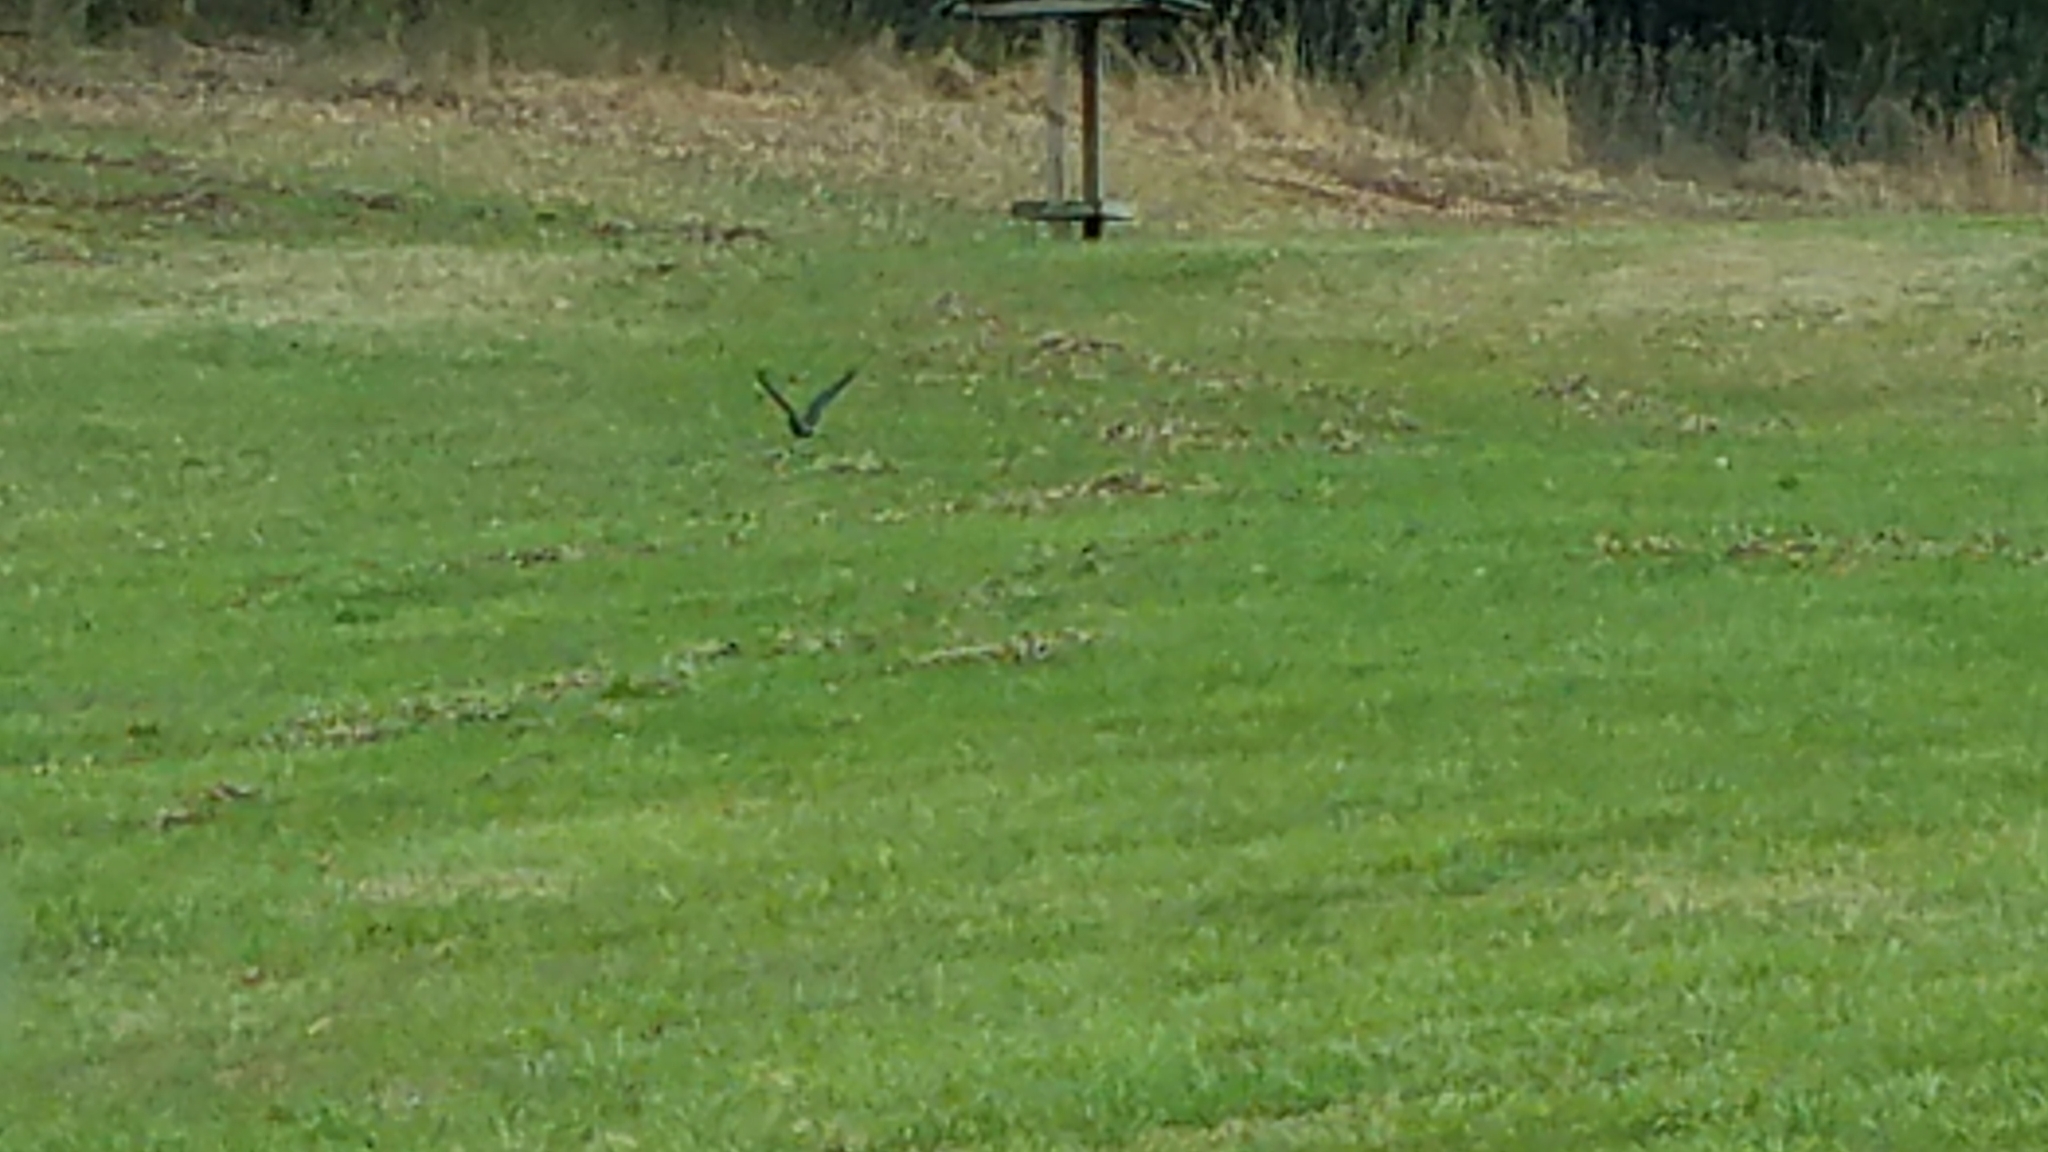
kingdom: Animalia
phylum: Chordata
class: Aves
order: Passeriformes
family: Corvidae
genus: Corvus
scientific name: Corvus brachyrhynchos
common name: American crow
